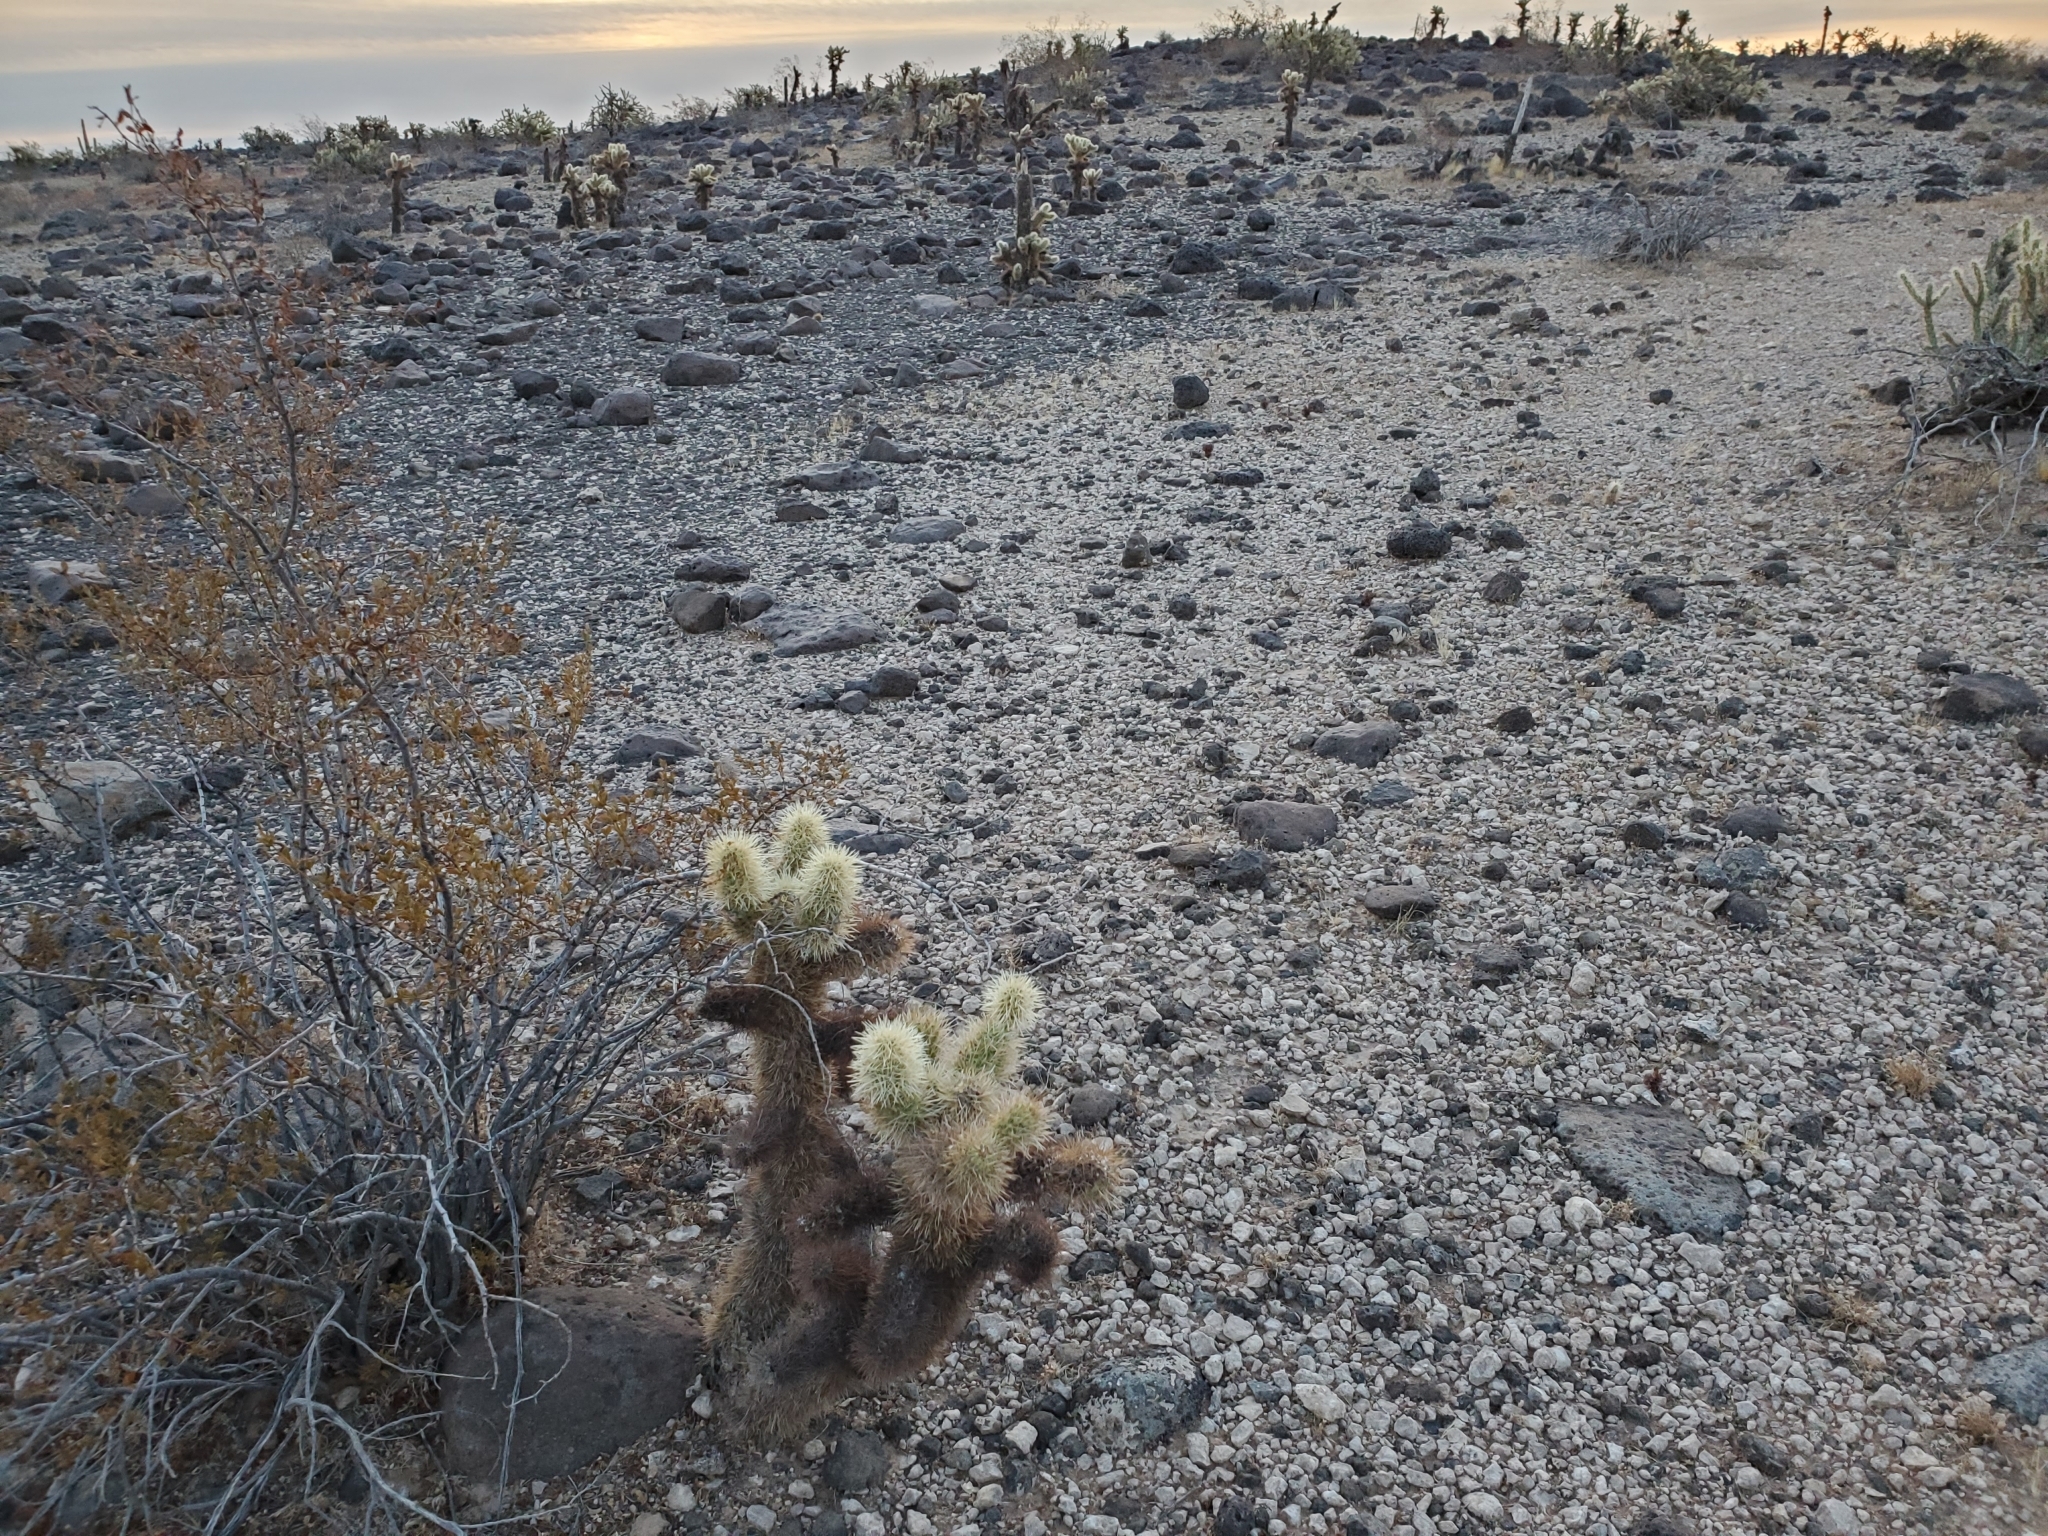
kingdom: Plantae
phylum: Tracheophyta
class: Magnoliopsida
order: Caryophyllales
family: Cactaceae
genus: Cylindropuntia
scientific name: Cylindropuntia fosbergii
